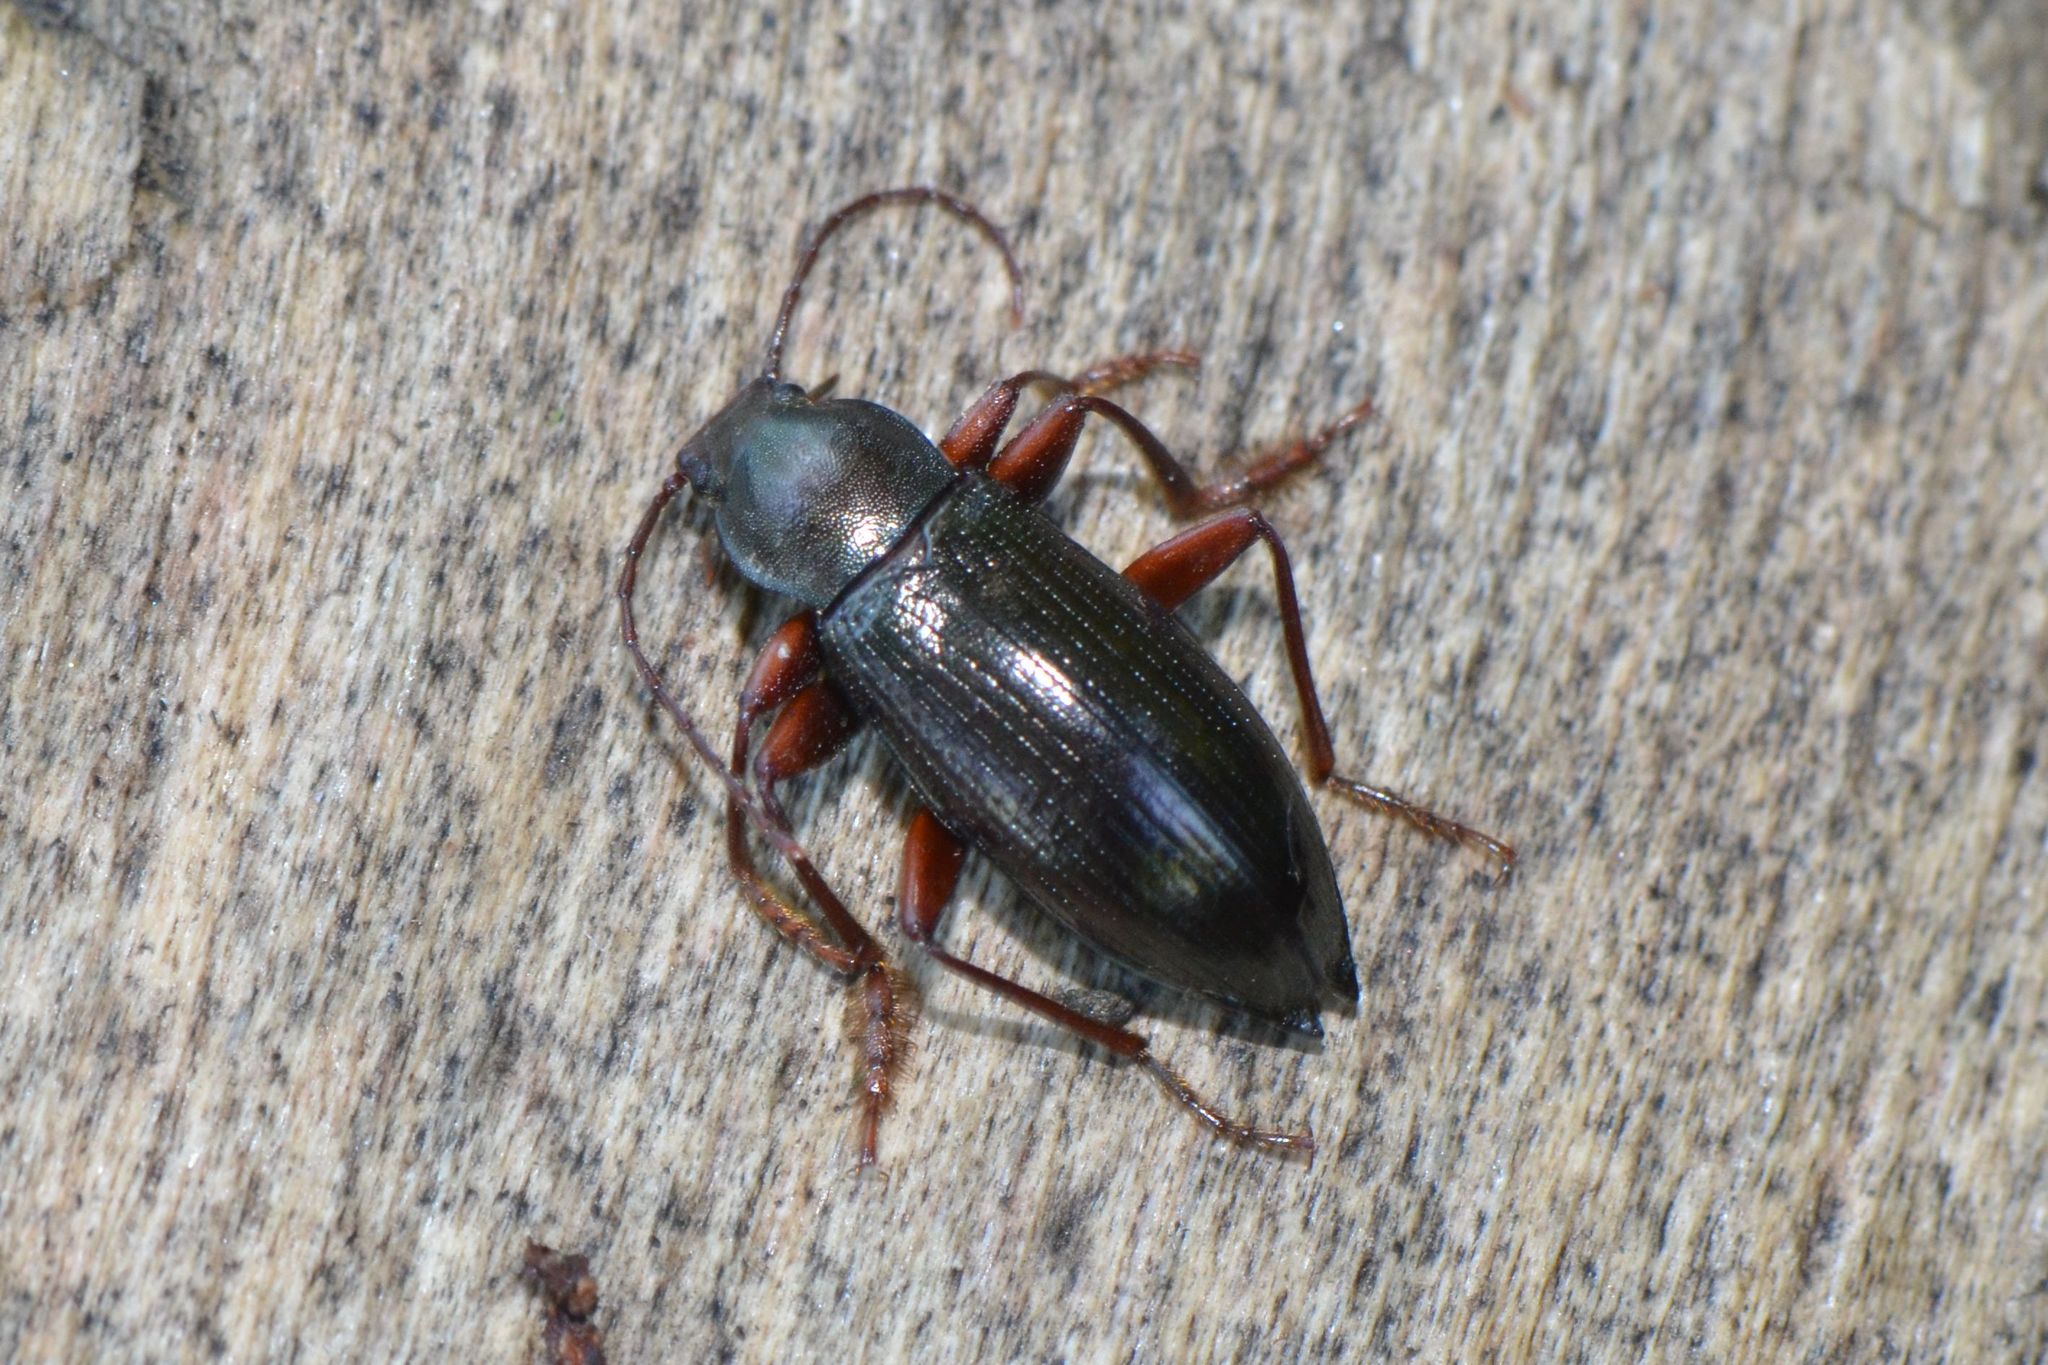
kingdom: Animalia
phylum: Arthropoda
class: Insecta
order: Coleoptera
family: Tenebrionidae
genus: Stenomax
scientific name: Stenomax aeneus
